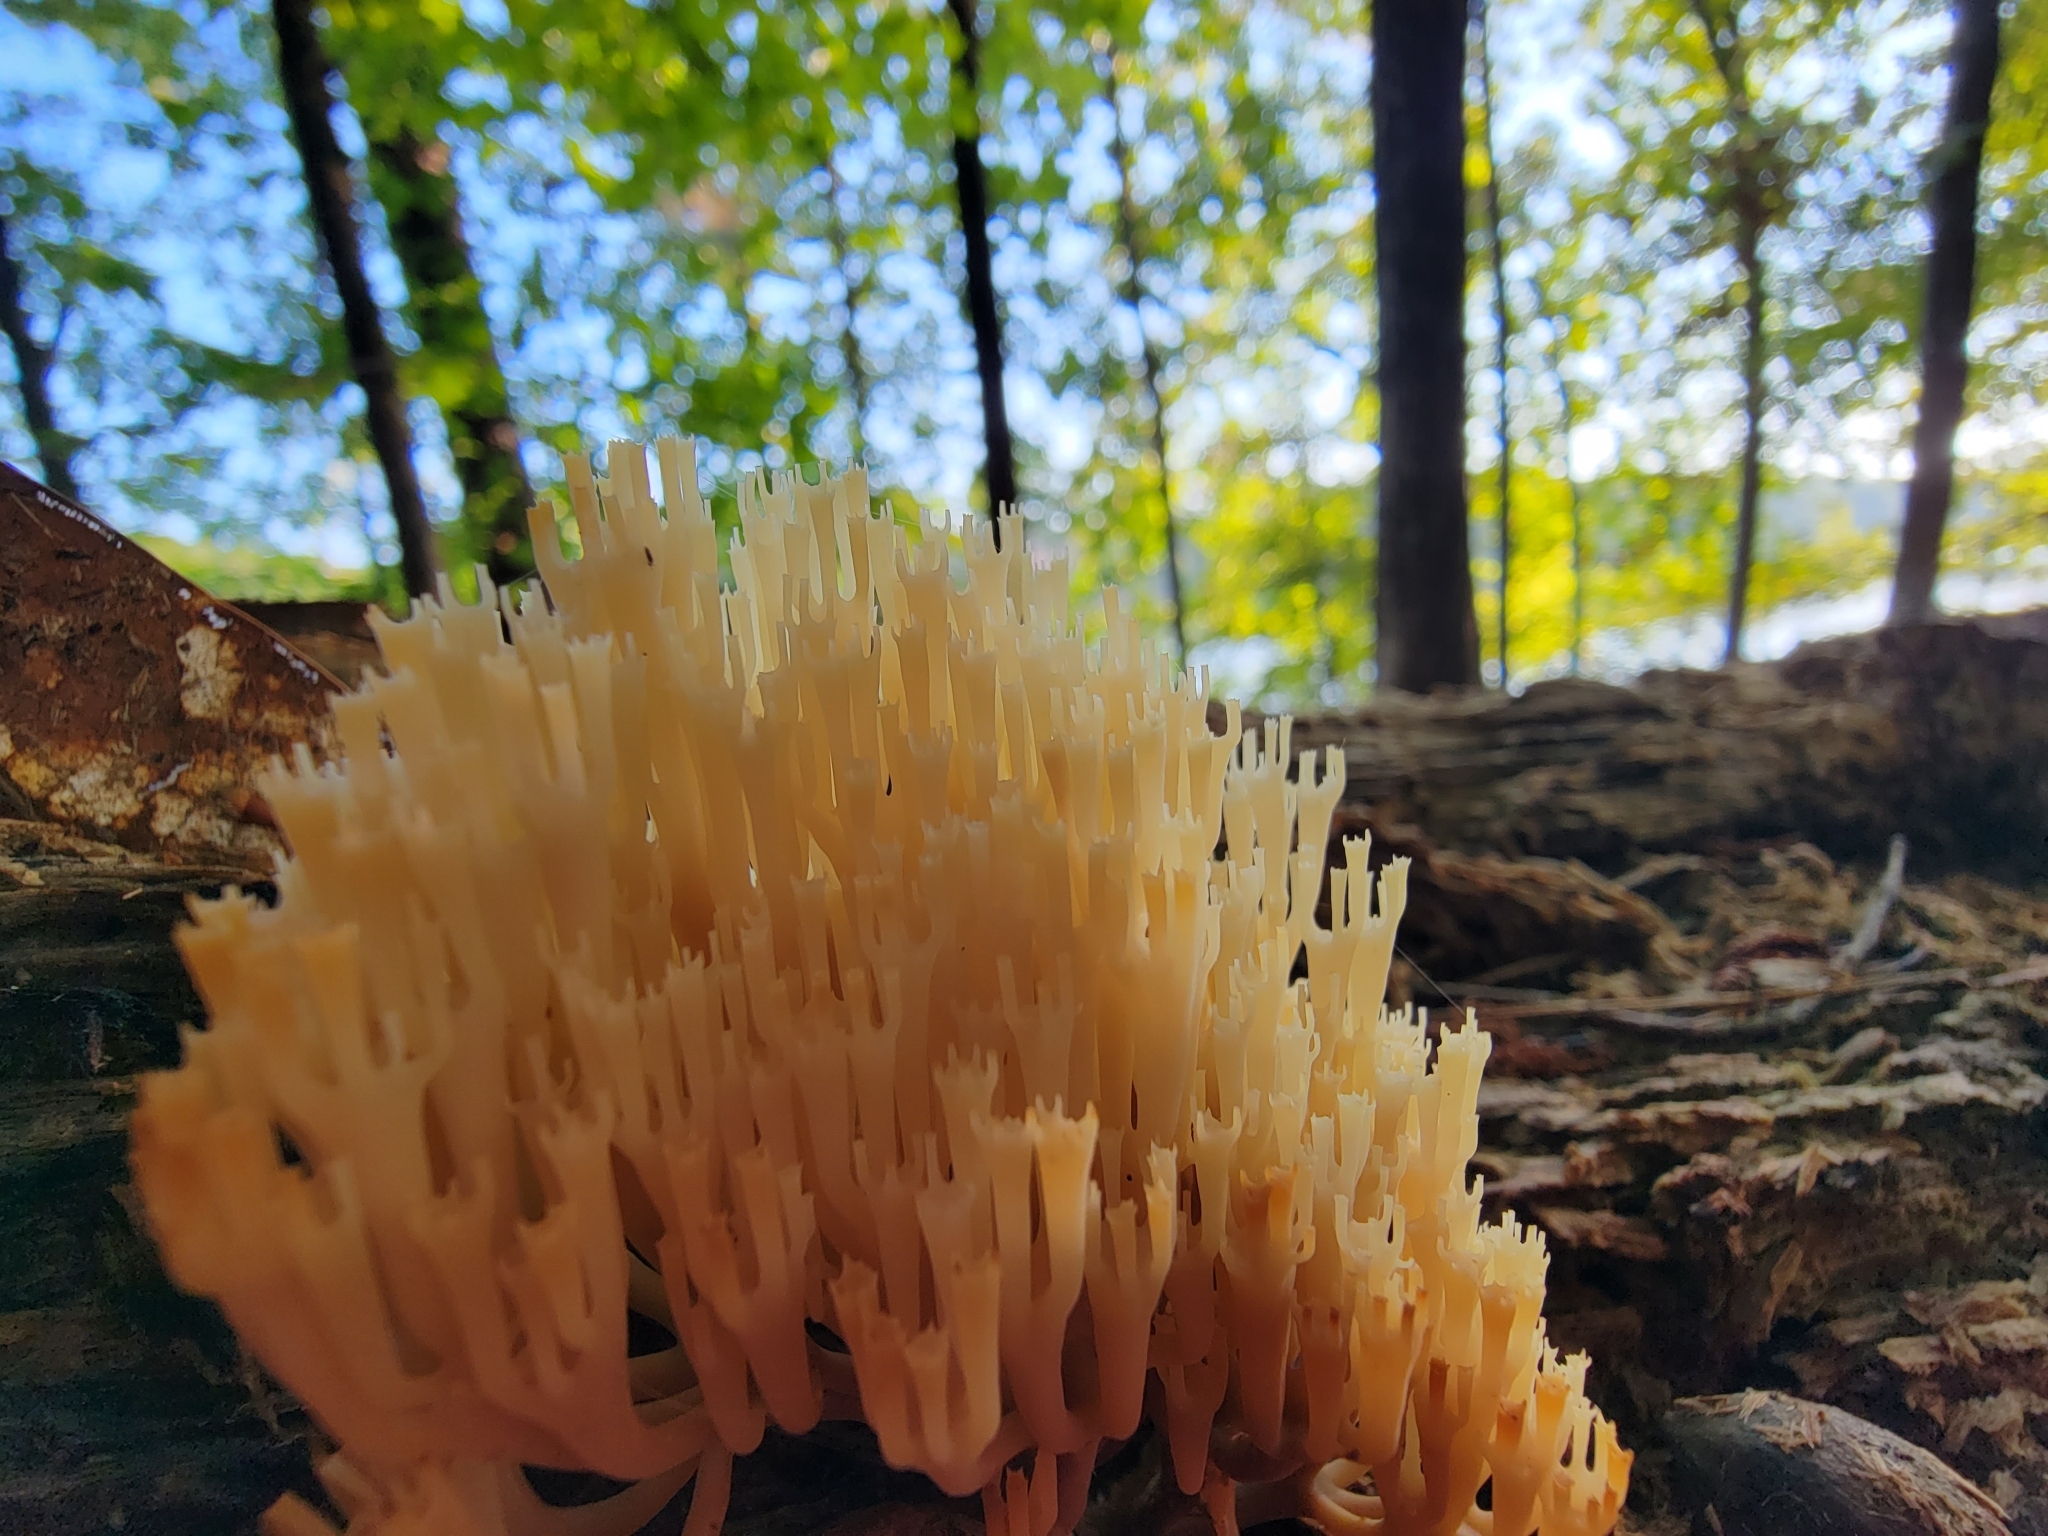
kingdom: Fungi
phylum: Basidiomycota
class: Agaricomycetes
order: Russulales
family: Auriscalpiaceae
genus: Artomyces
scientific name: Artomyces pyxidatus
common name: Crown-tipped coral fungus
